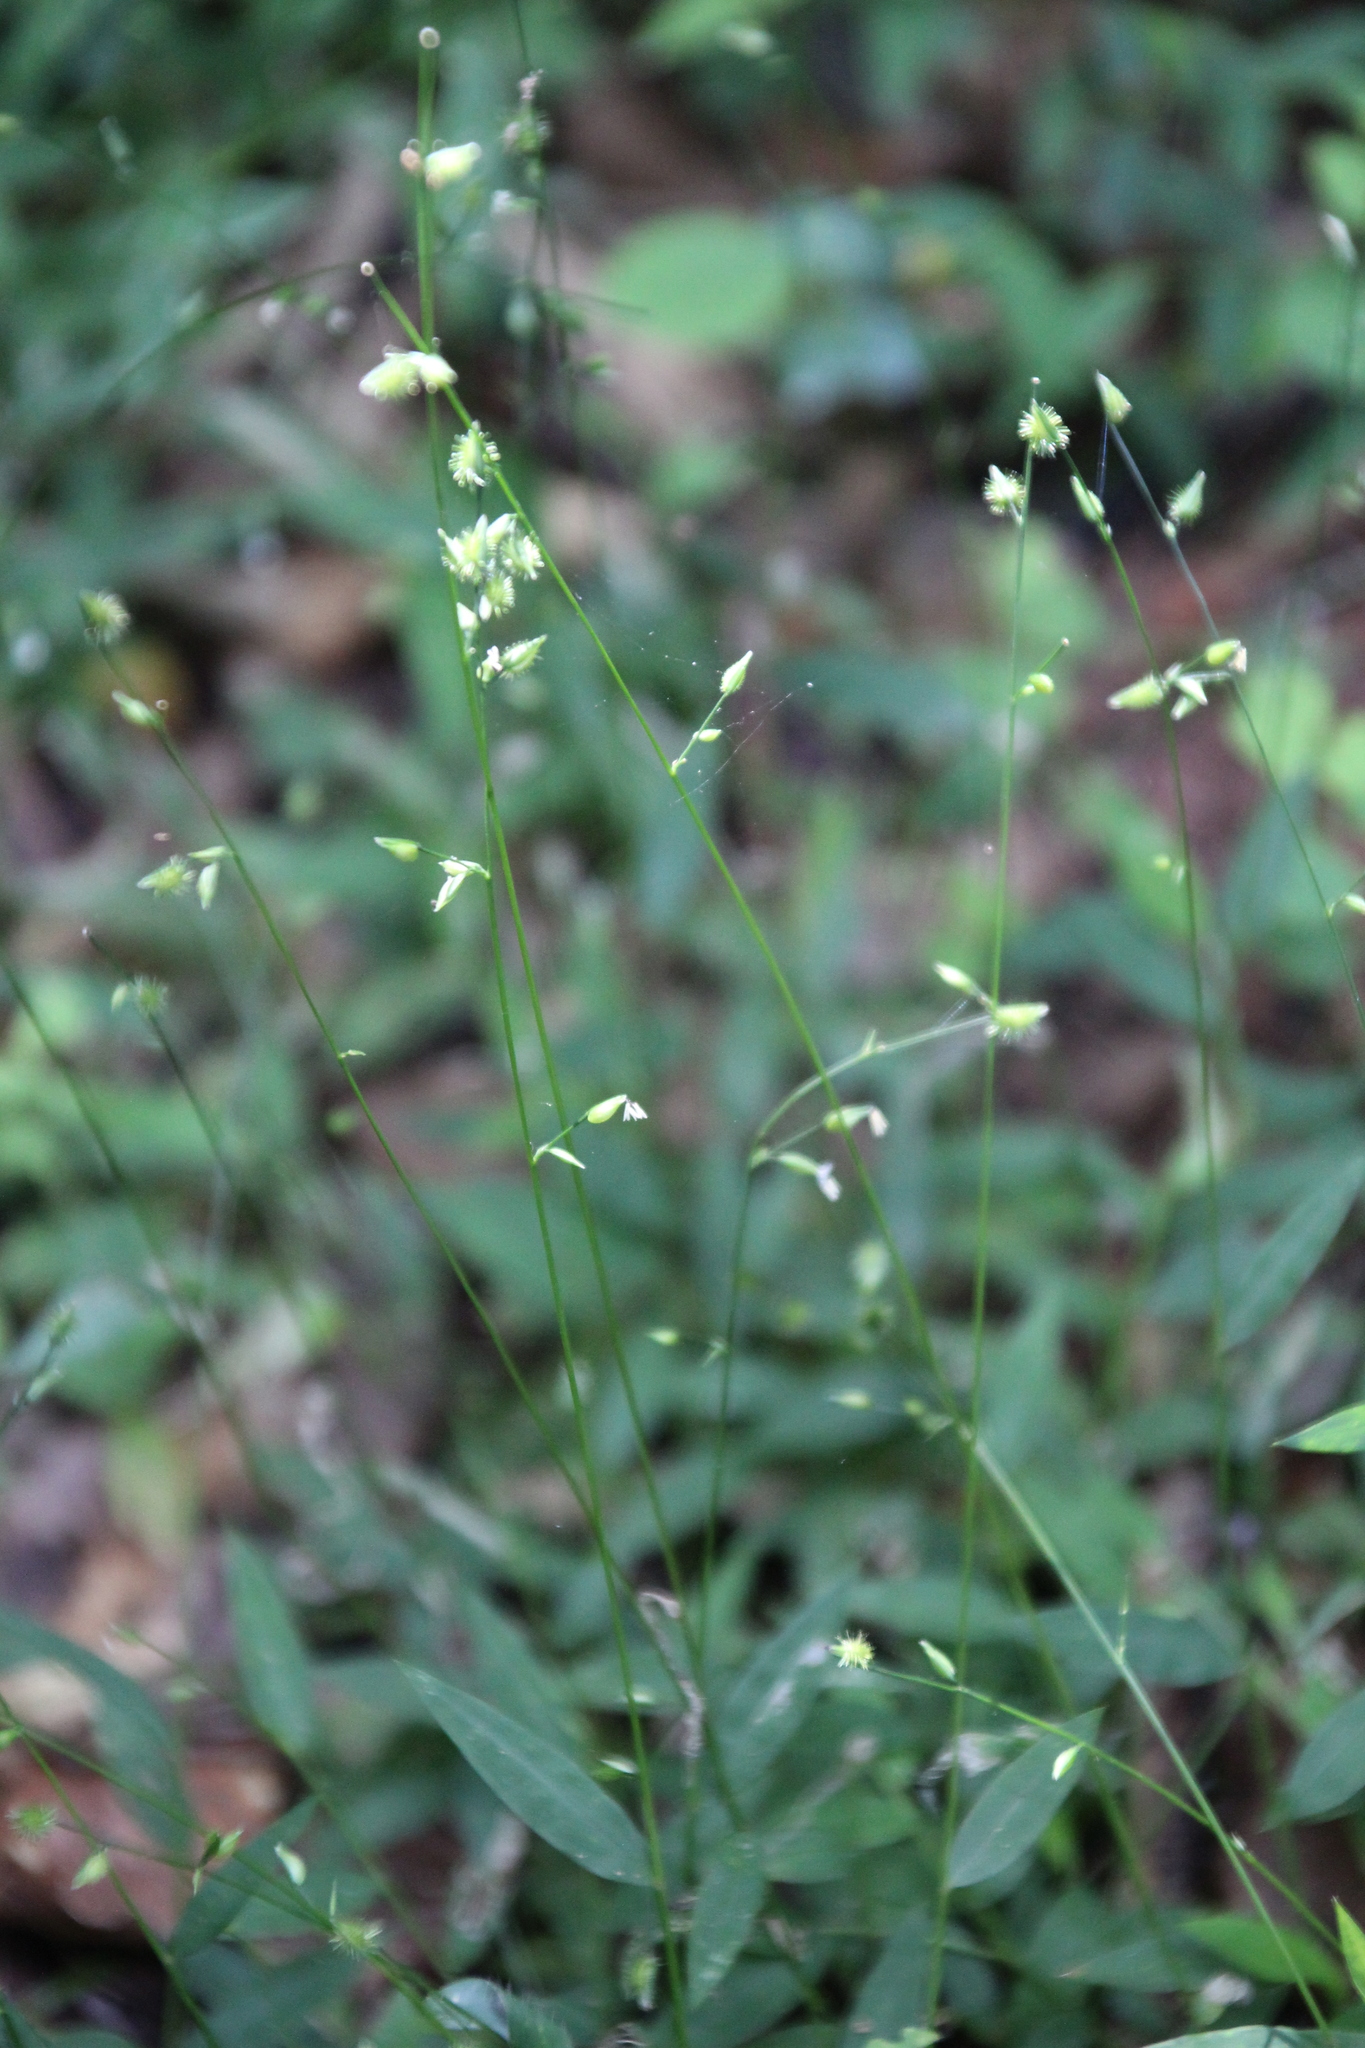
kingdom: Plantae
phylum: Tracheophyta
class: Liliopsida
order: Poales
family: Poaceae
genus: Oplismenus
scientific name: Oplismenus hirtellus
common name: Basketgrass
